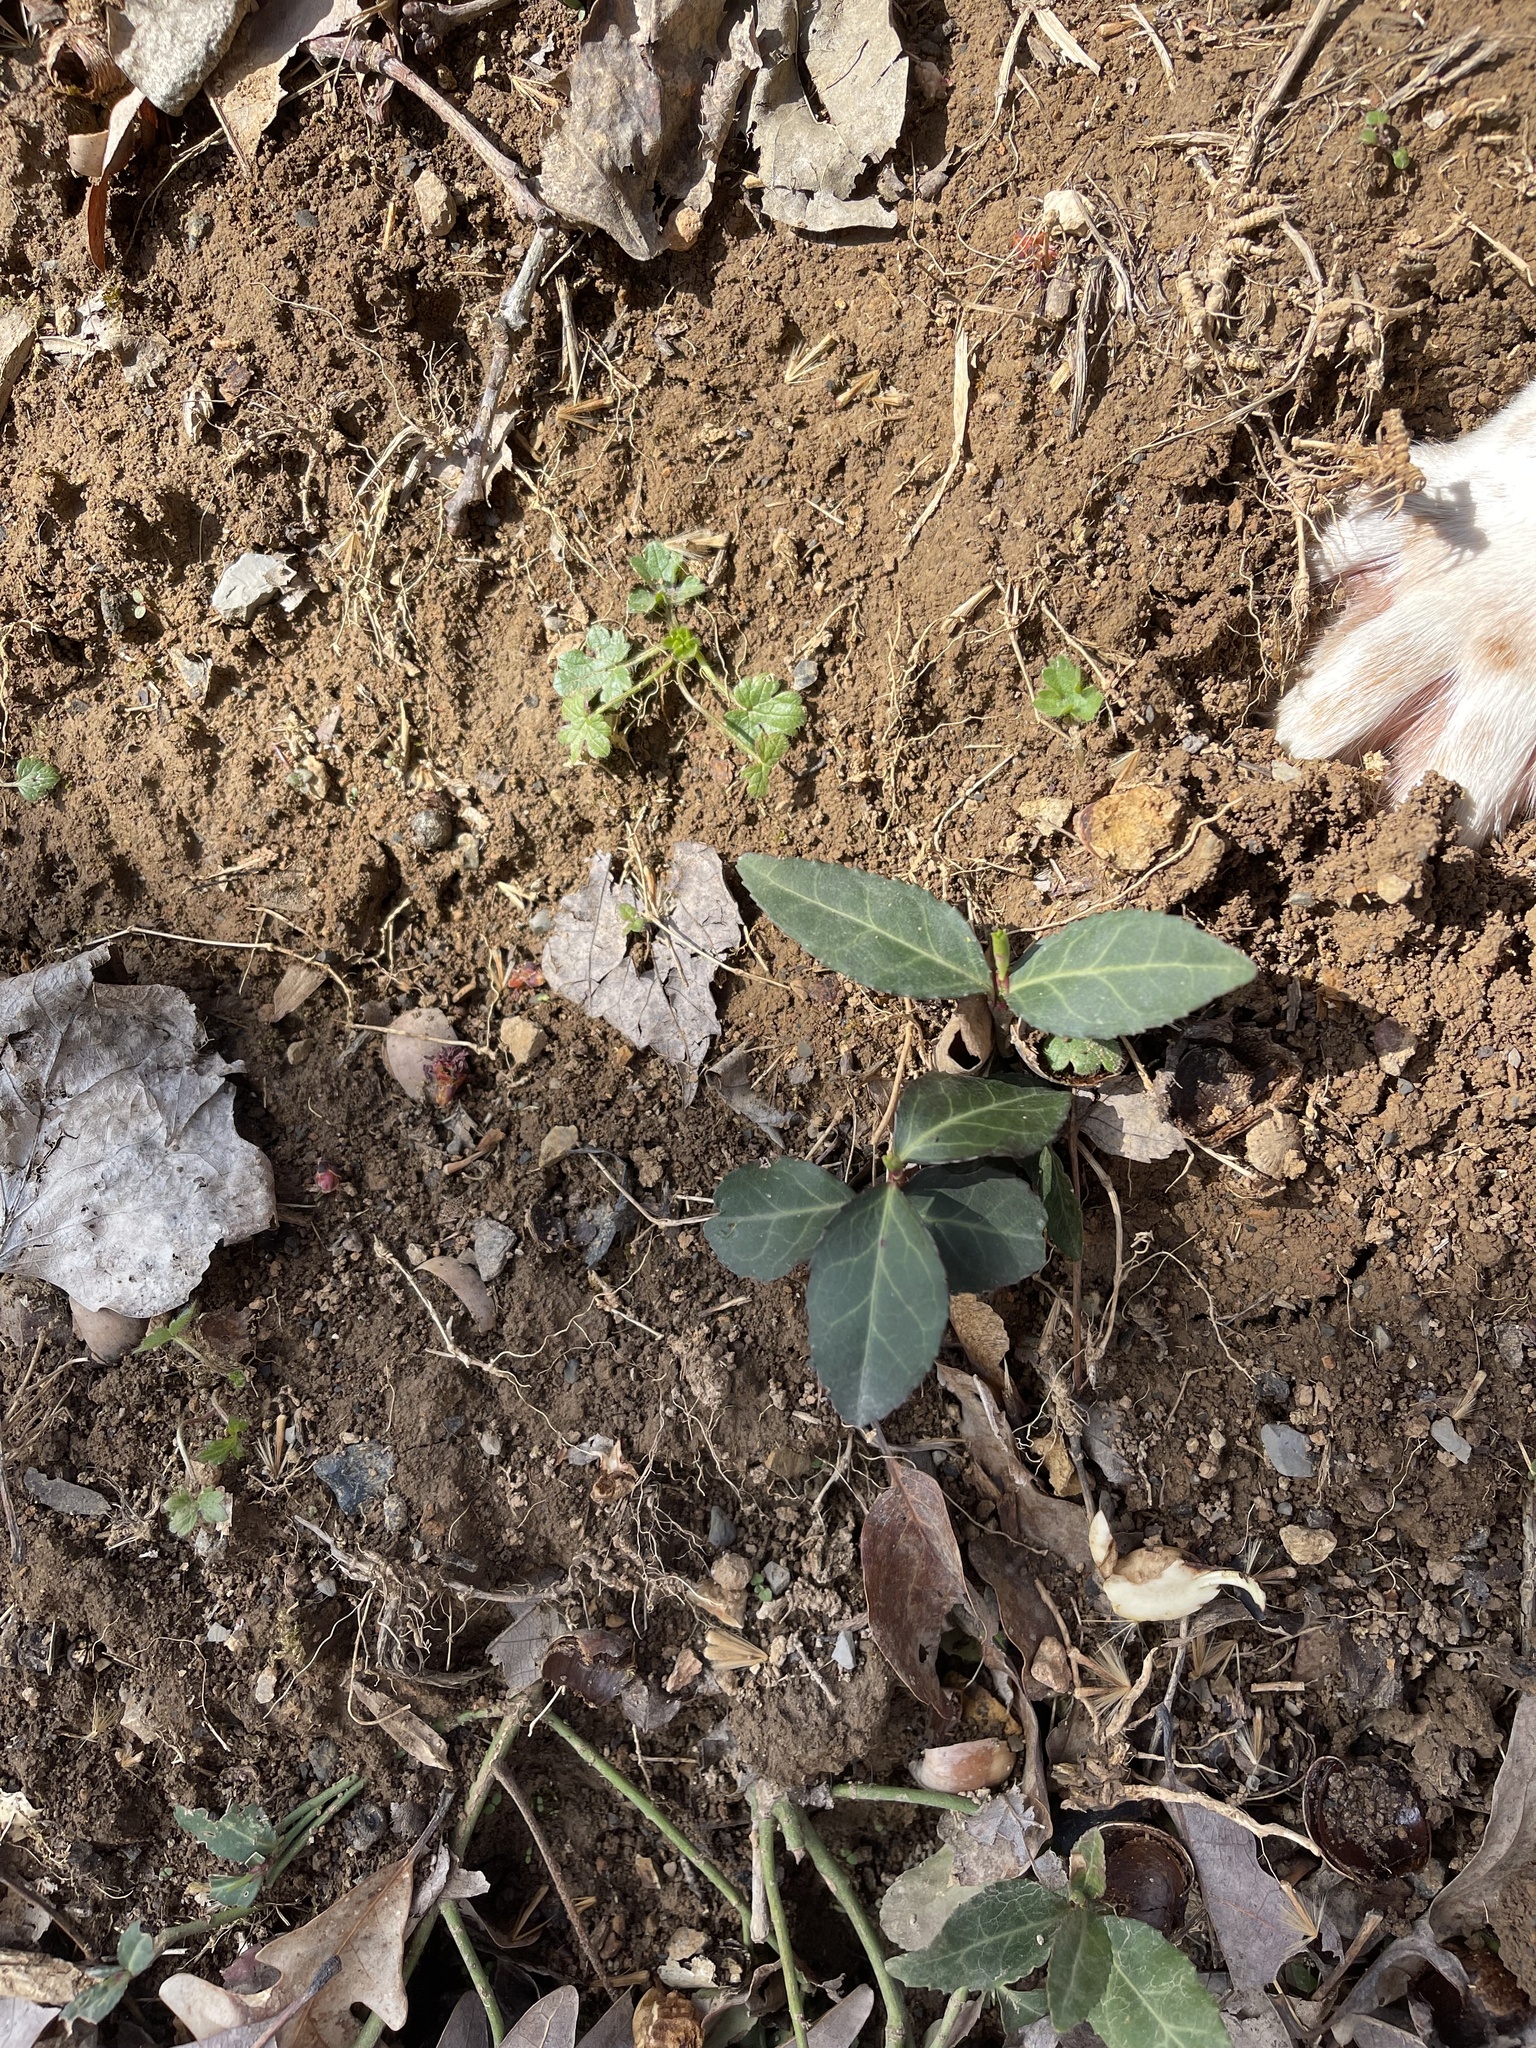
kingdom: Plantae
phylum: Tracheophyta
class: Magnoliopsida
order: Celastrales
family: Celastraceae
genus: Euonymus
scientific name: Euonymus fortunei
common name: Climbing euonymus
